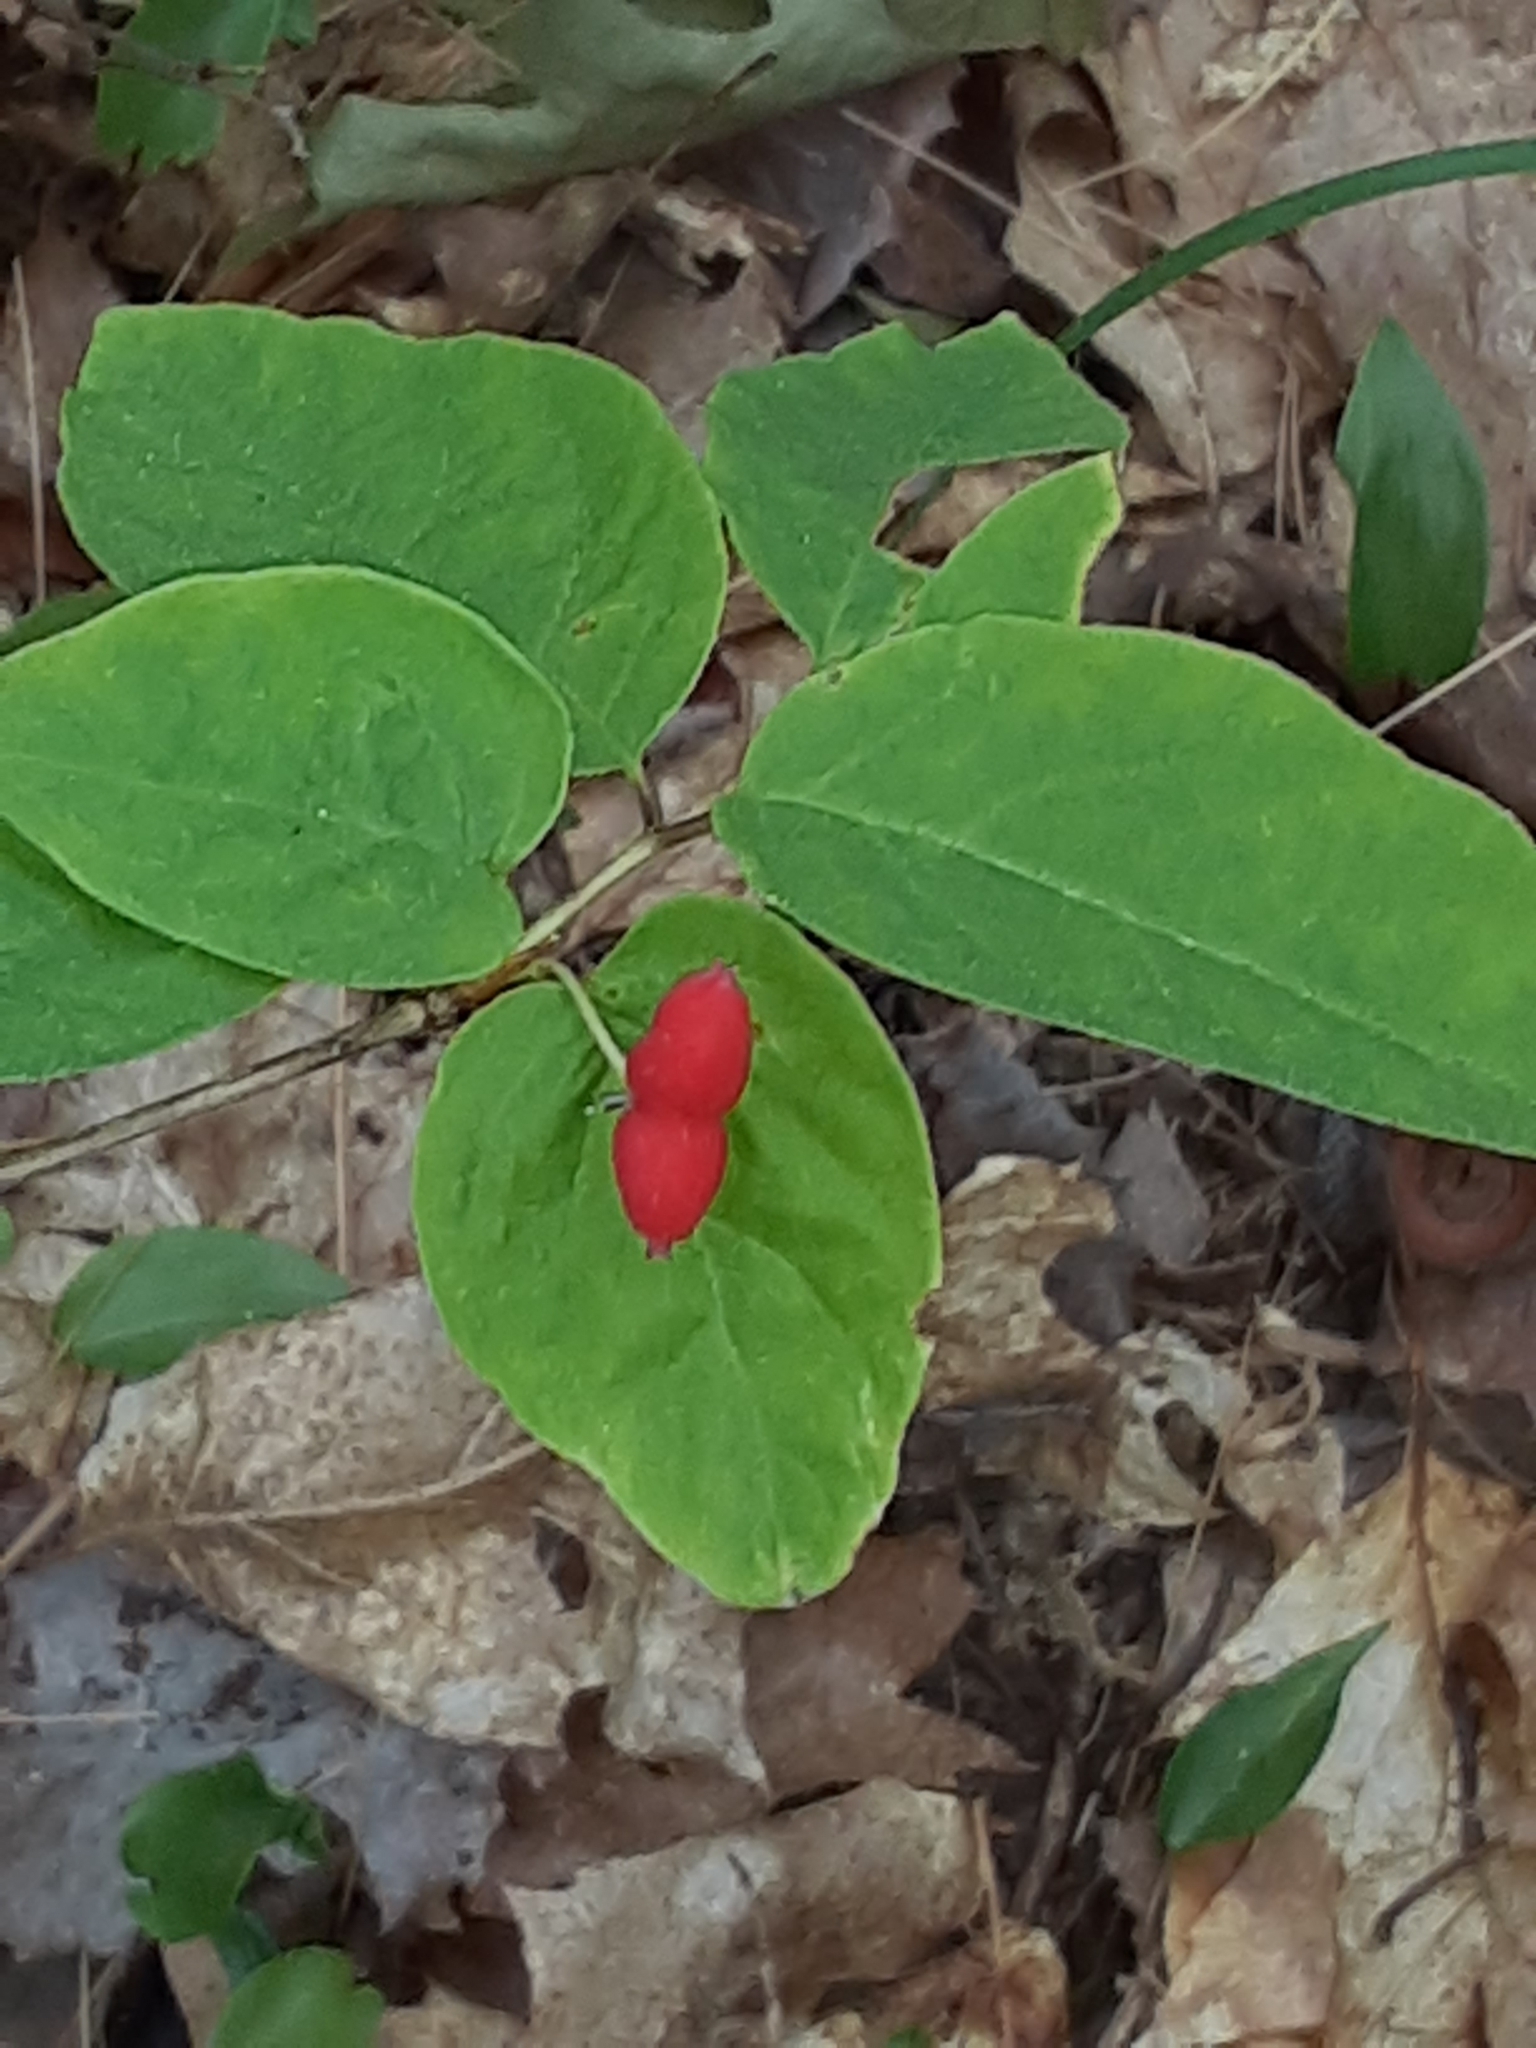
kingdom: Plantae
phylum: Tracheophyta
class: Magnoliopsida
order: Dipsacales
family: Caprifoliaceae
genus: Lonicera
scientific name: Lonicera canadensis
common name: American fly-honeysuckle
